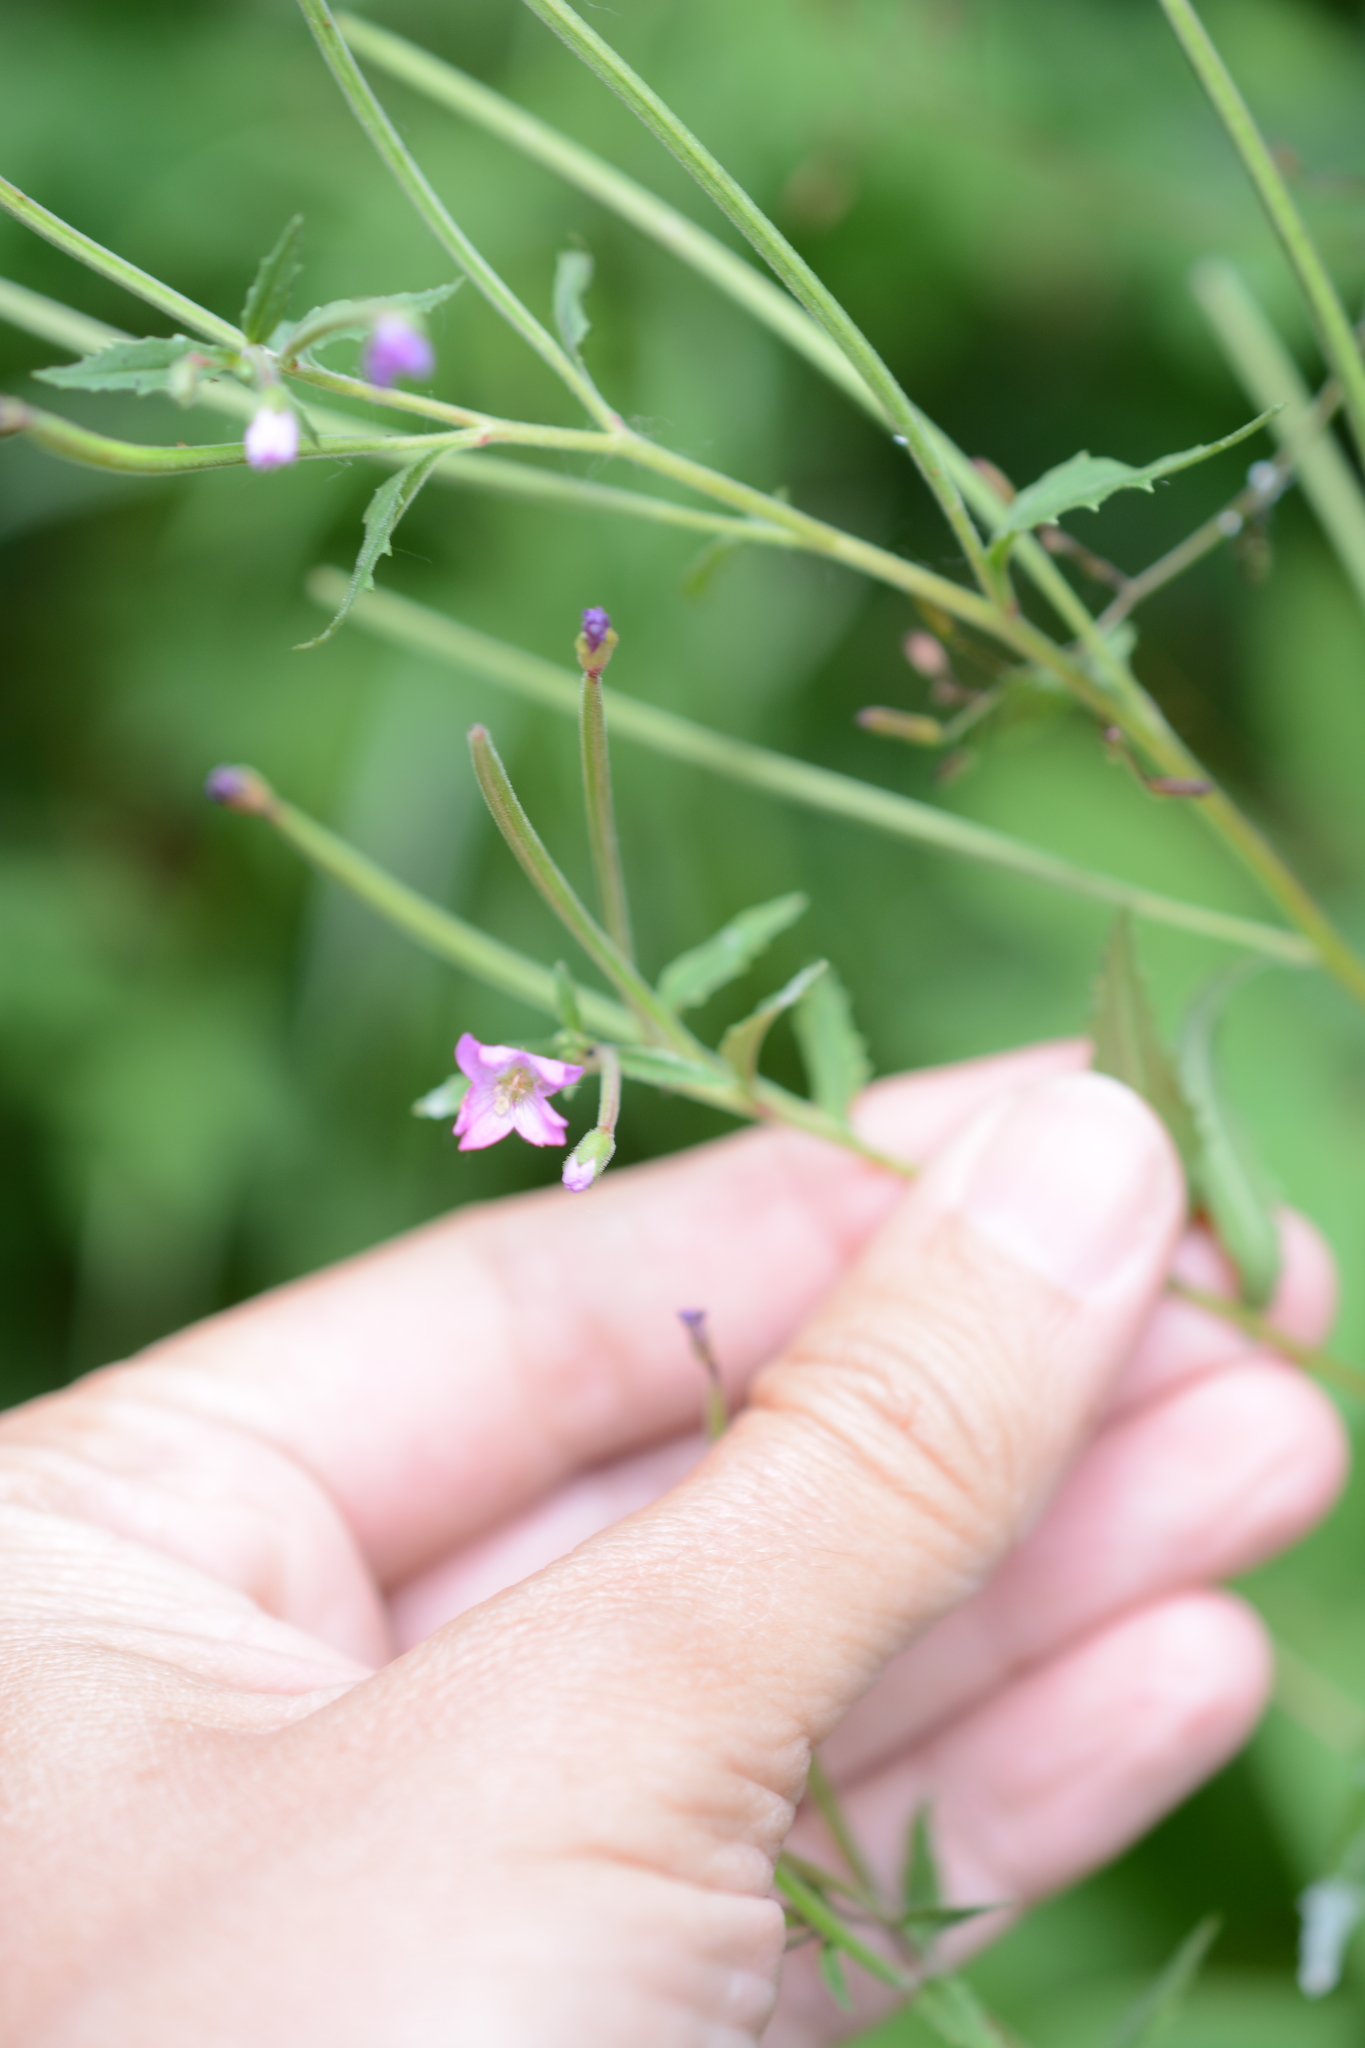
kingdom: Plantae
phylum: Tracheophyta
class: Magnoliopsida
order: Myrtales
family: Onagraceae
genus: Epilobium
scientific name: Epilobium ciliatum
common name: American willowherb
